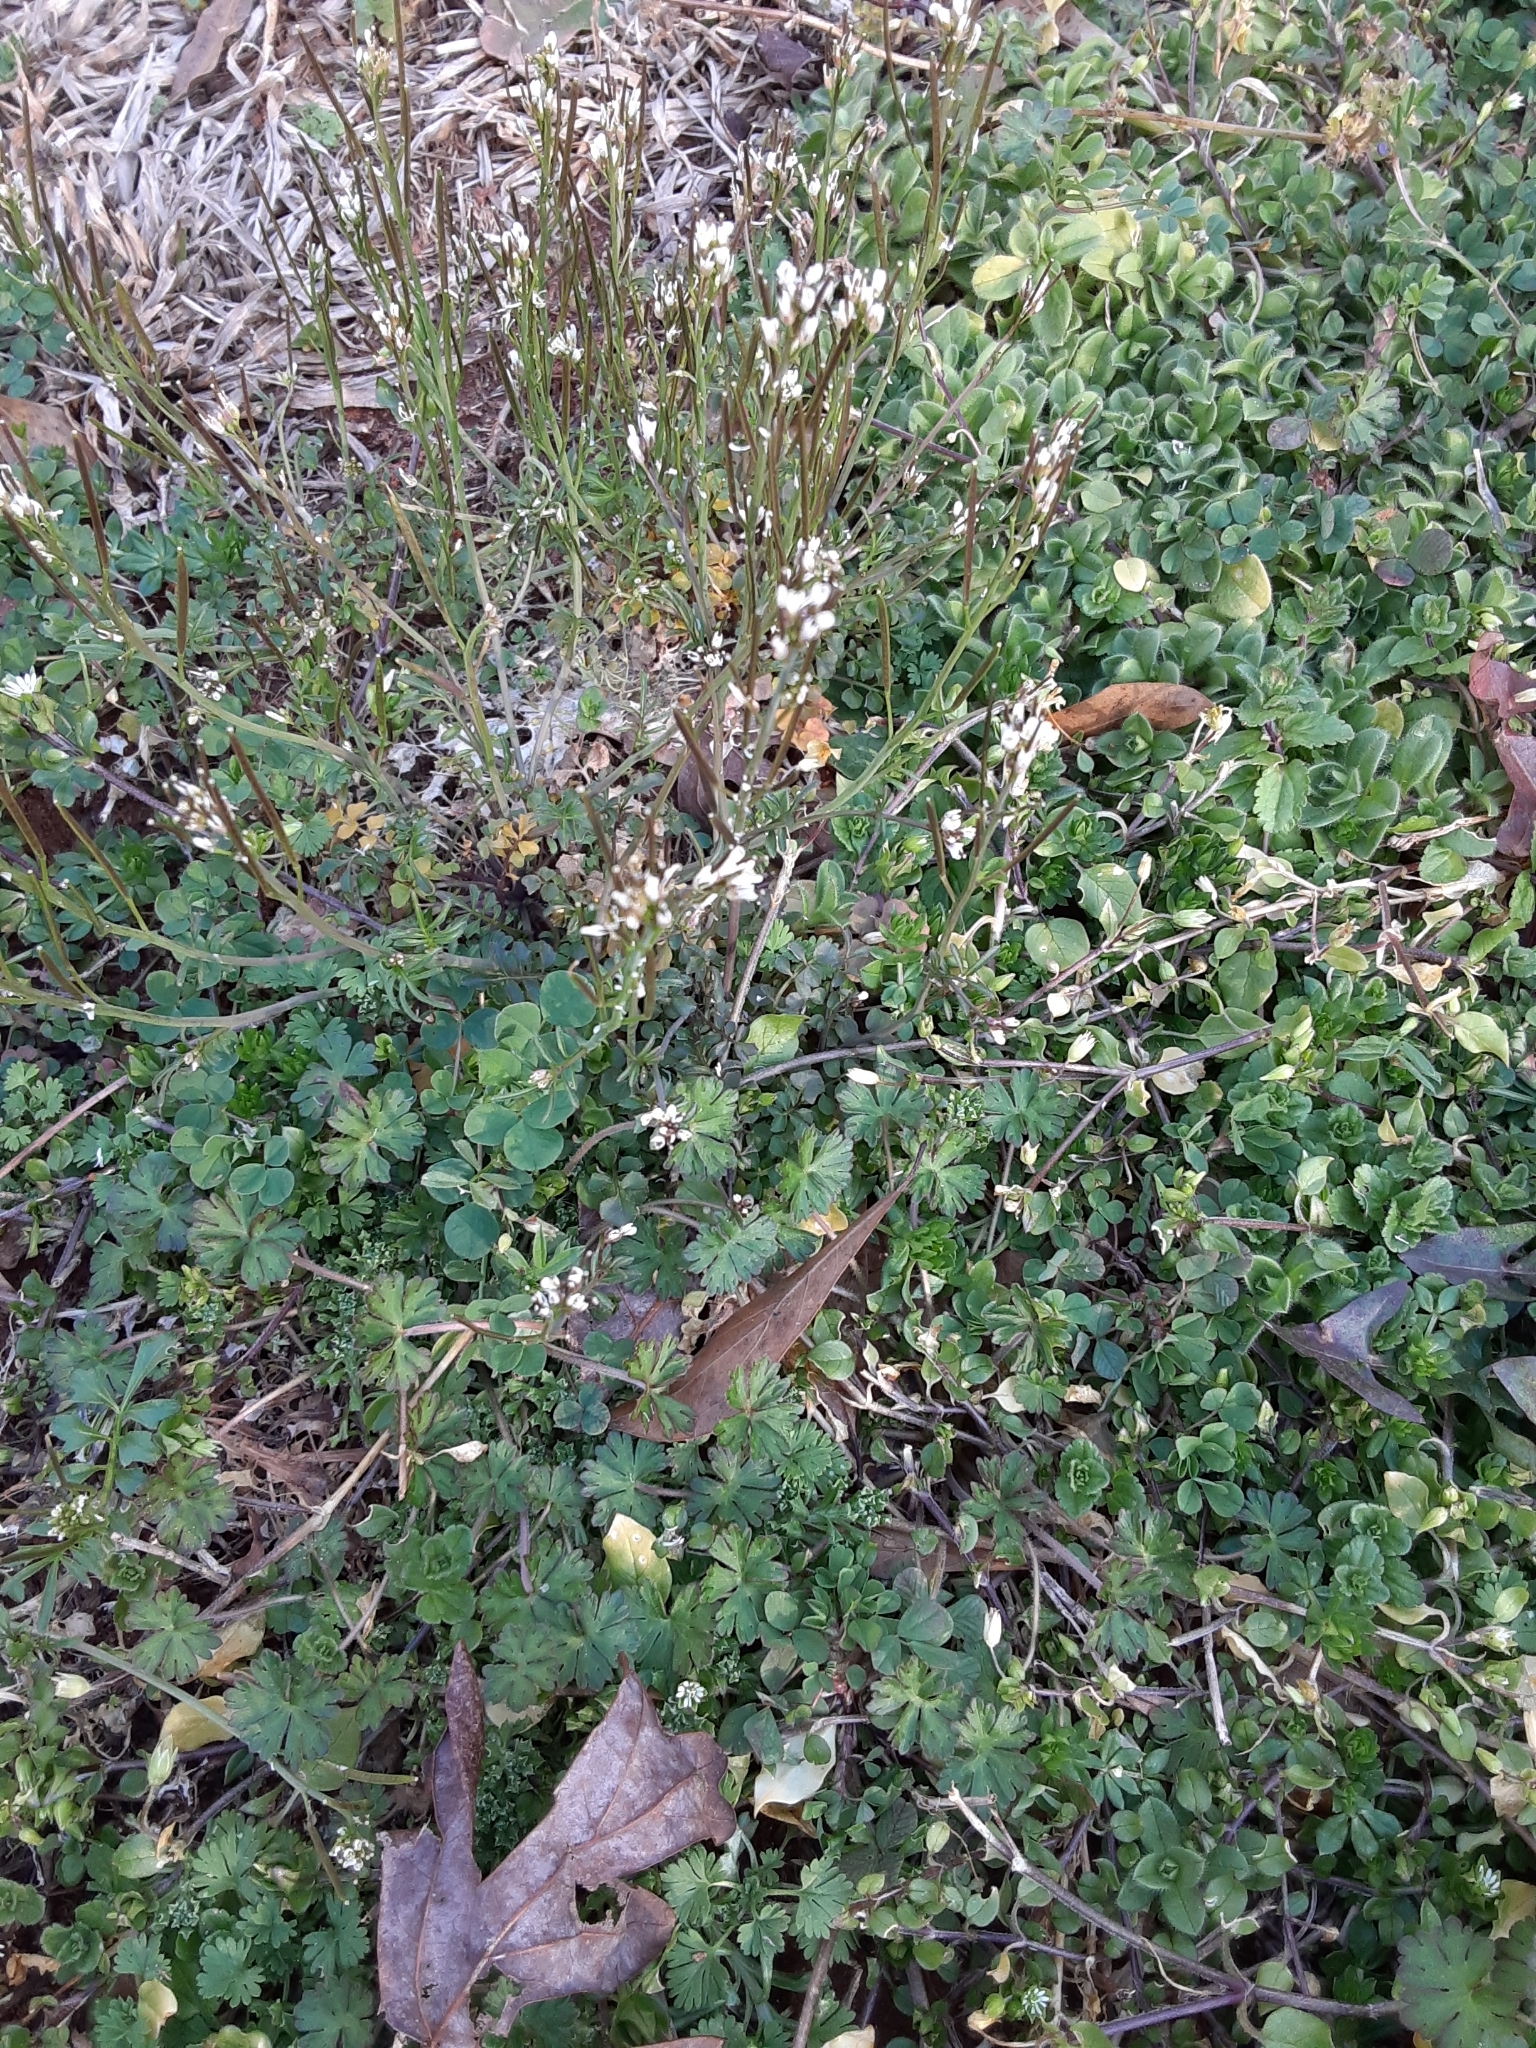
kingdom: Plantae
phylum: Tracheophyta
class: Magnoliopsida
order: Brassicales
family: Brassicaceae
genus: Cardamine
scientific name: Cardamine hirsuta
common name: Hairy bittercress
